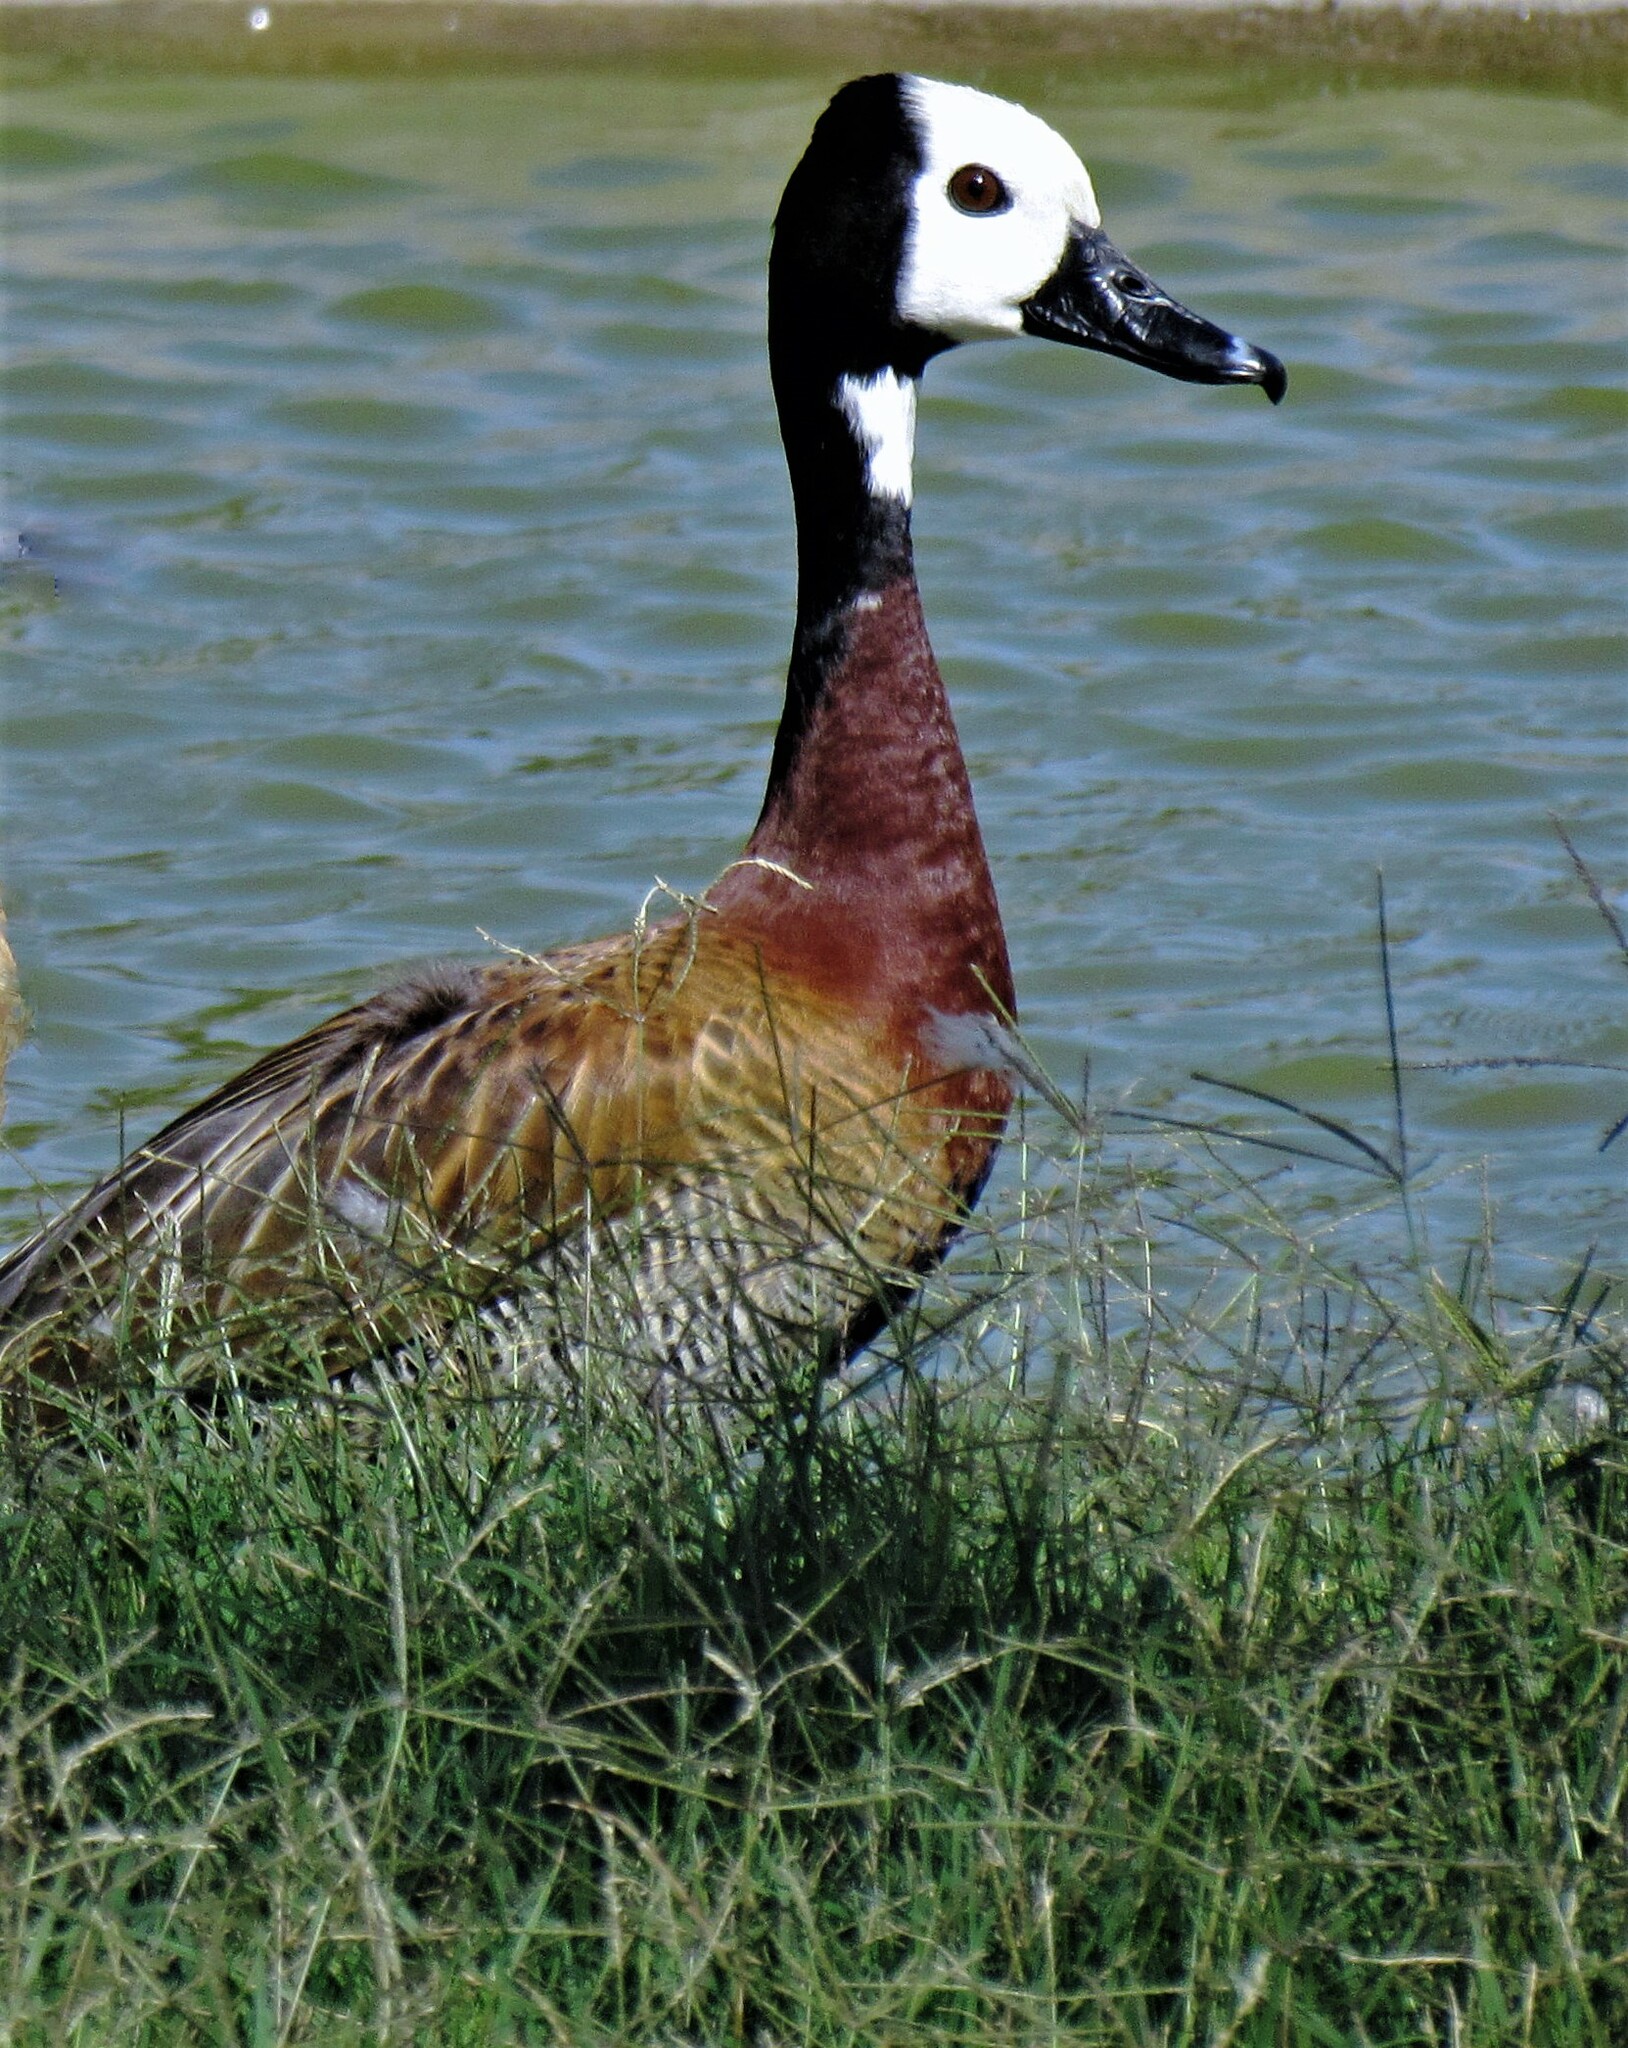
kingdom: Animalia
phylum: Chordata
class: Aves
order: Anseriformes
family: Anatidae
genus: Dendrocygna
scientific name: Dendrocygna viduata
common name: White-faced whistling duck
